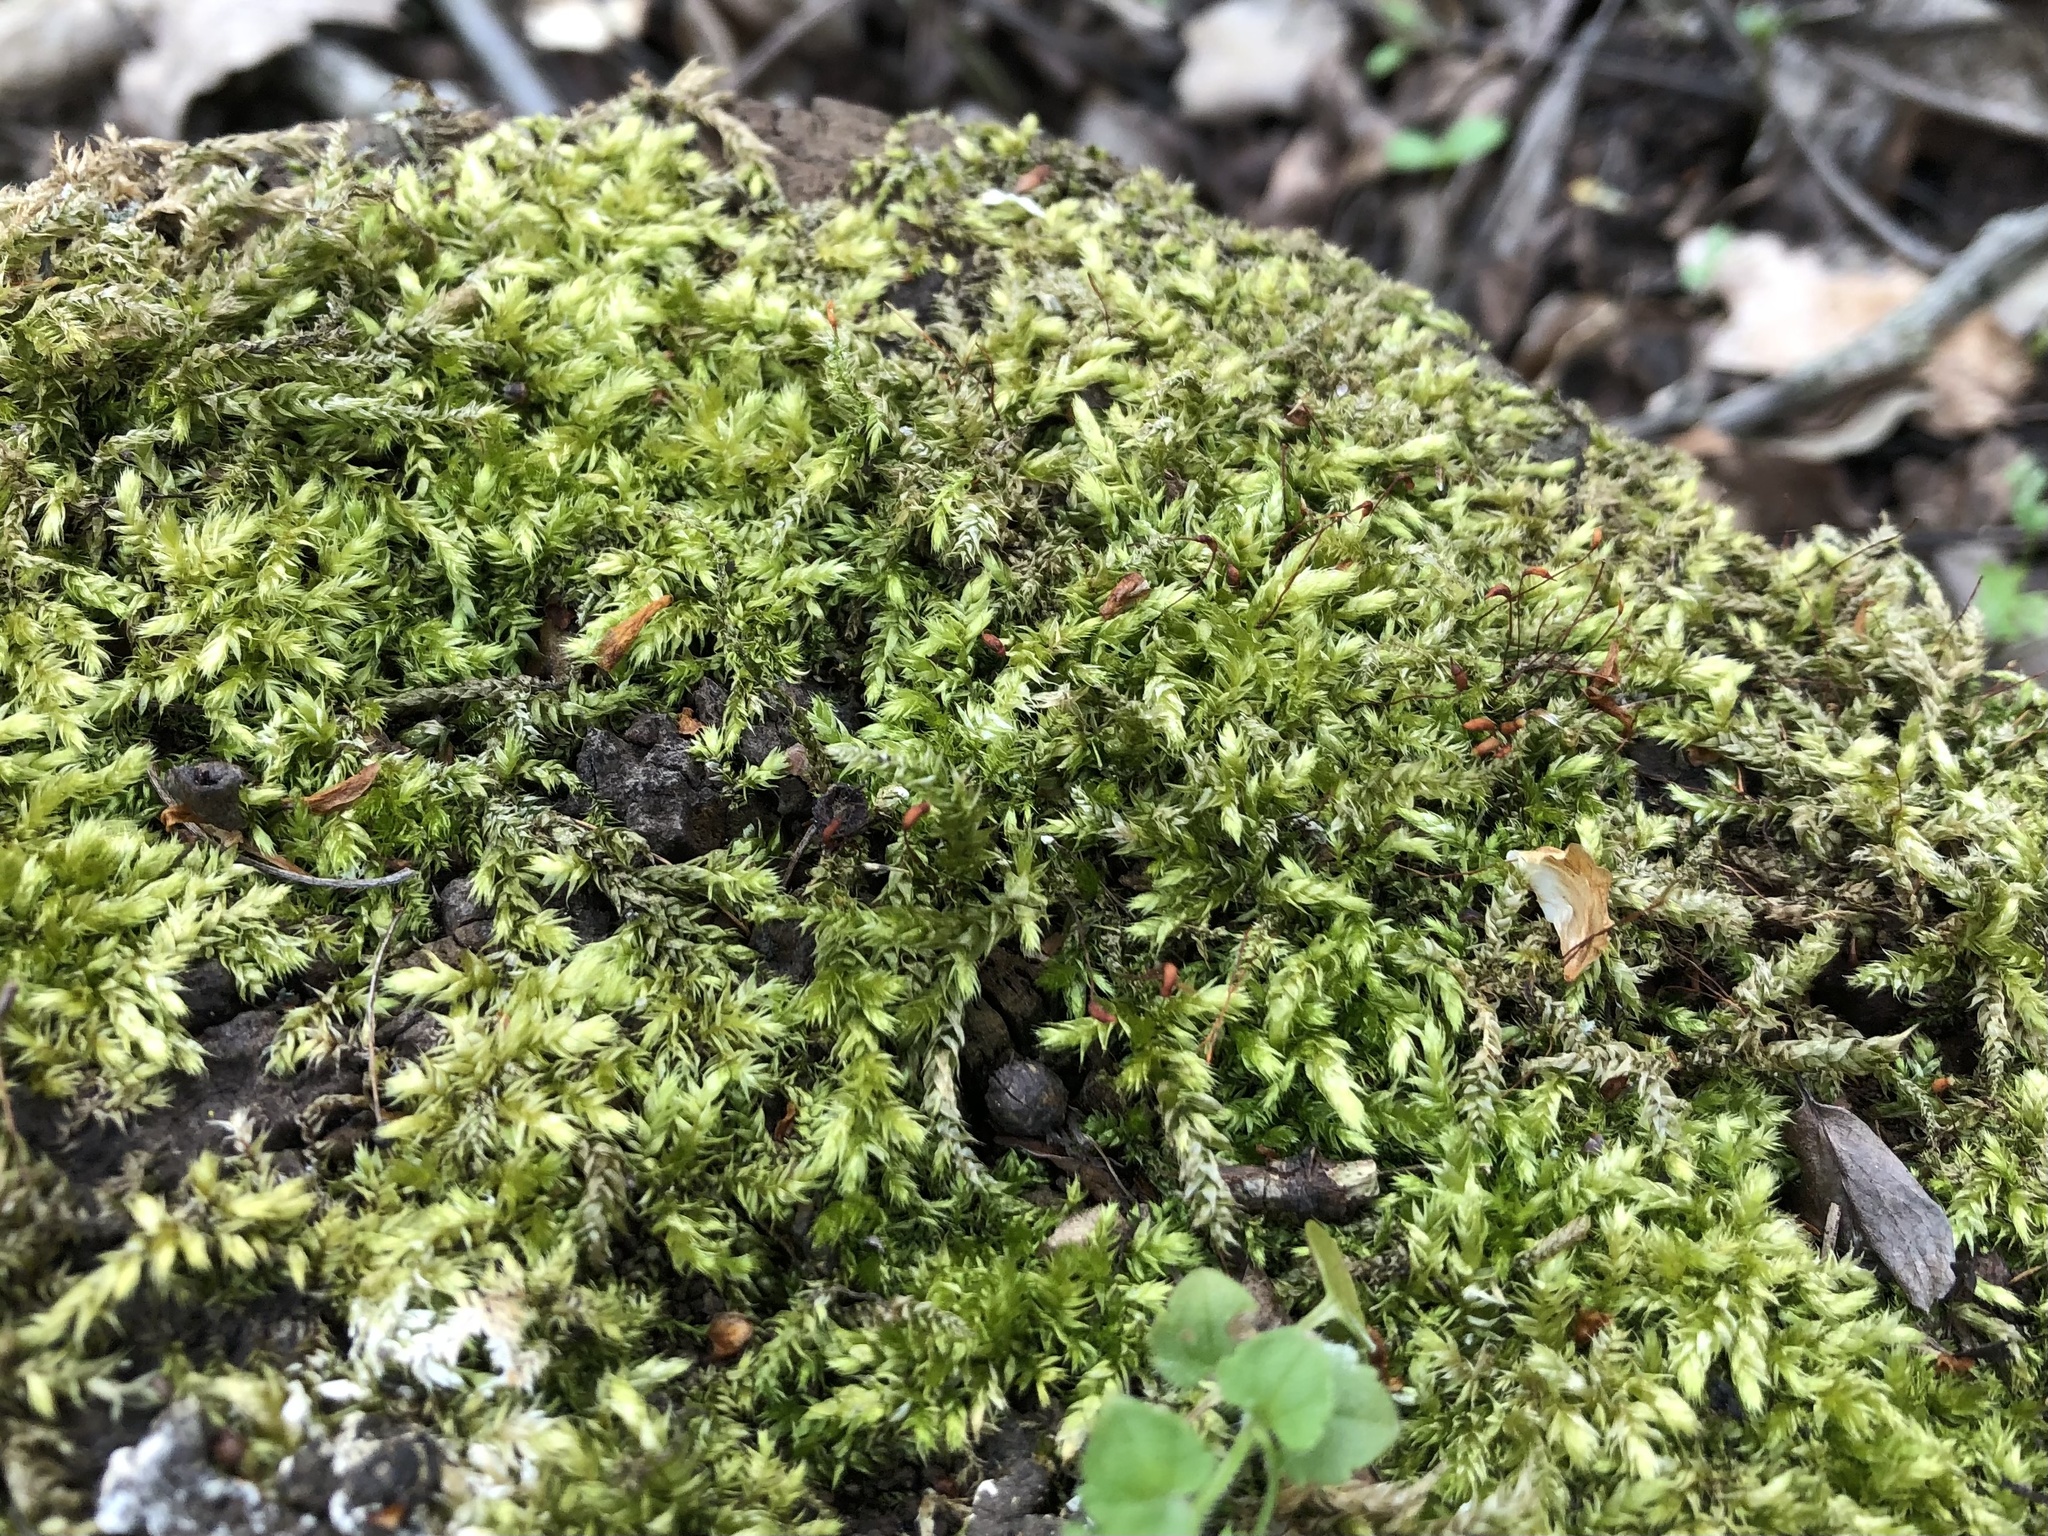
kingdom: Plantae
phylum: Bryophyta
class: Bryopsida
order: Hypnales
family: Brachytheciaceae
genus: Brachythecium
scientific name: Brachythecium rutabulum
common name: Rough-stalked feather-moss
